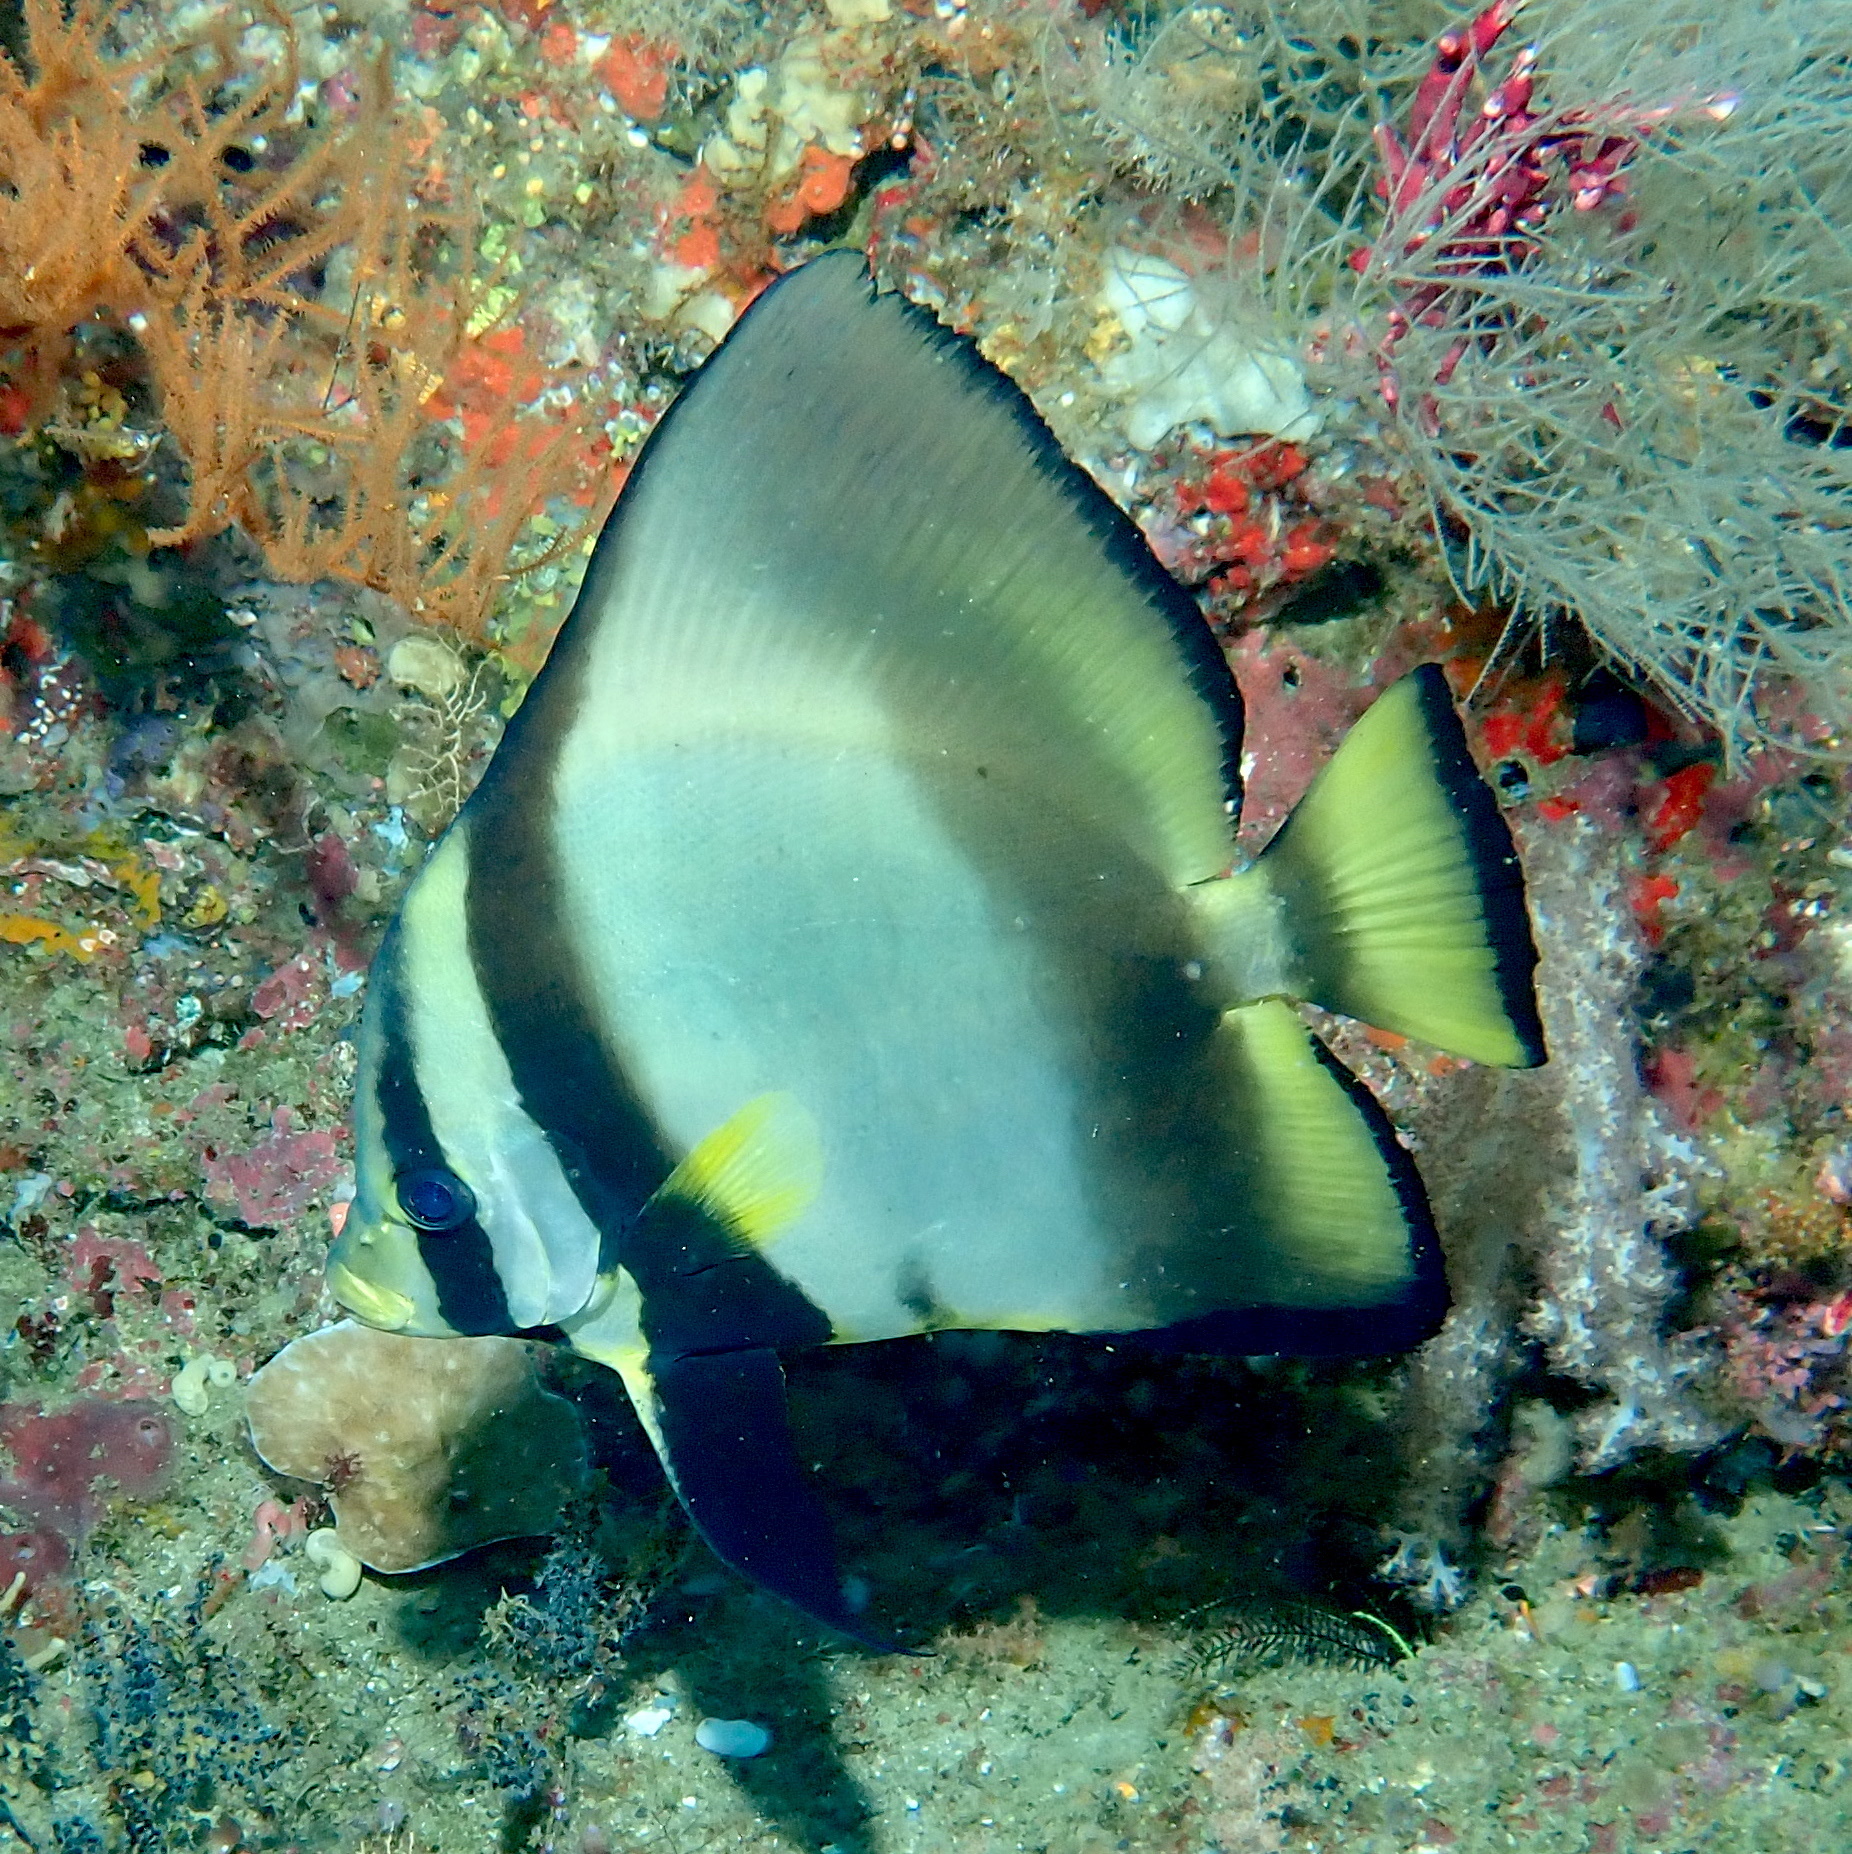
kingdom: Animalia
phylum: Chordata
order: Perciformes
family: Ephippidae
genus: Platax
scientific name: Platax pinnatus
